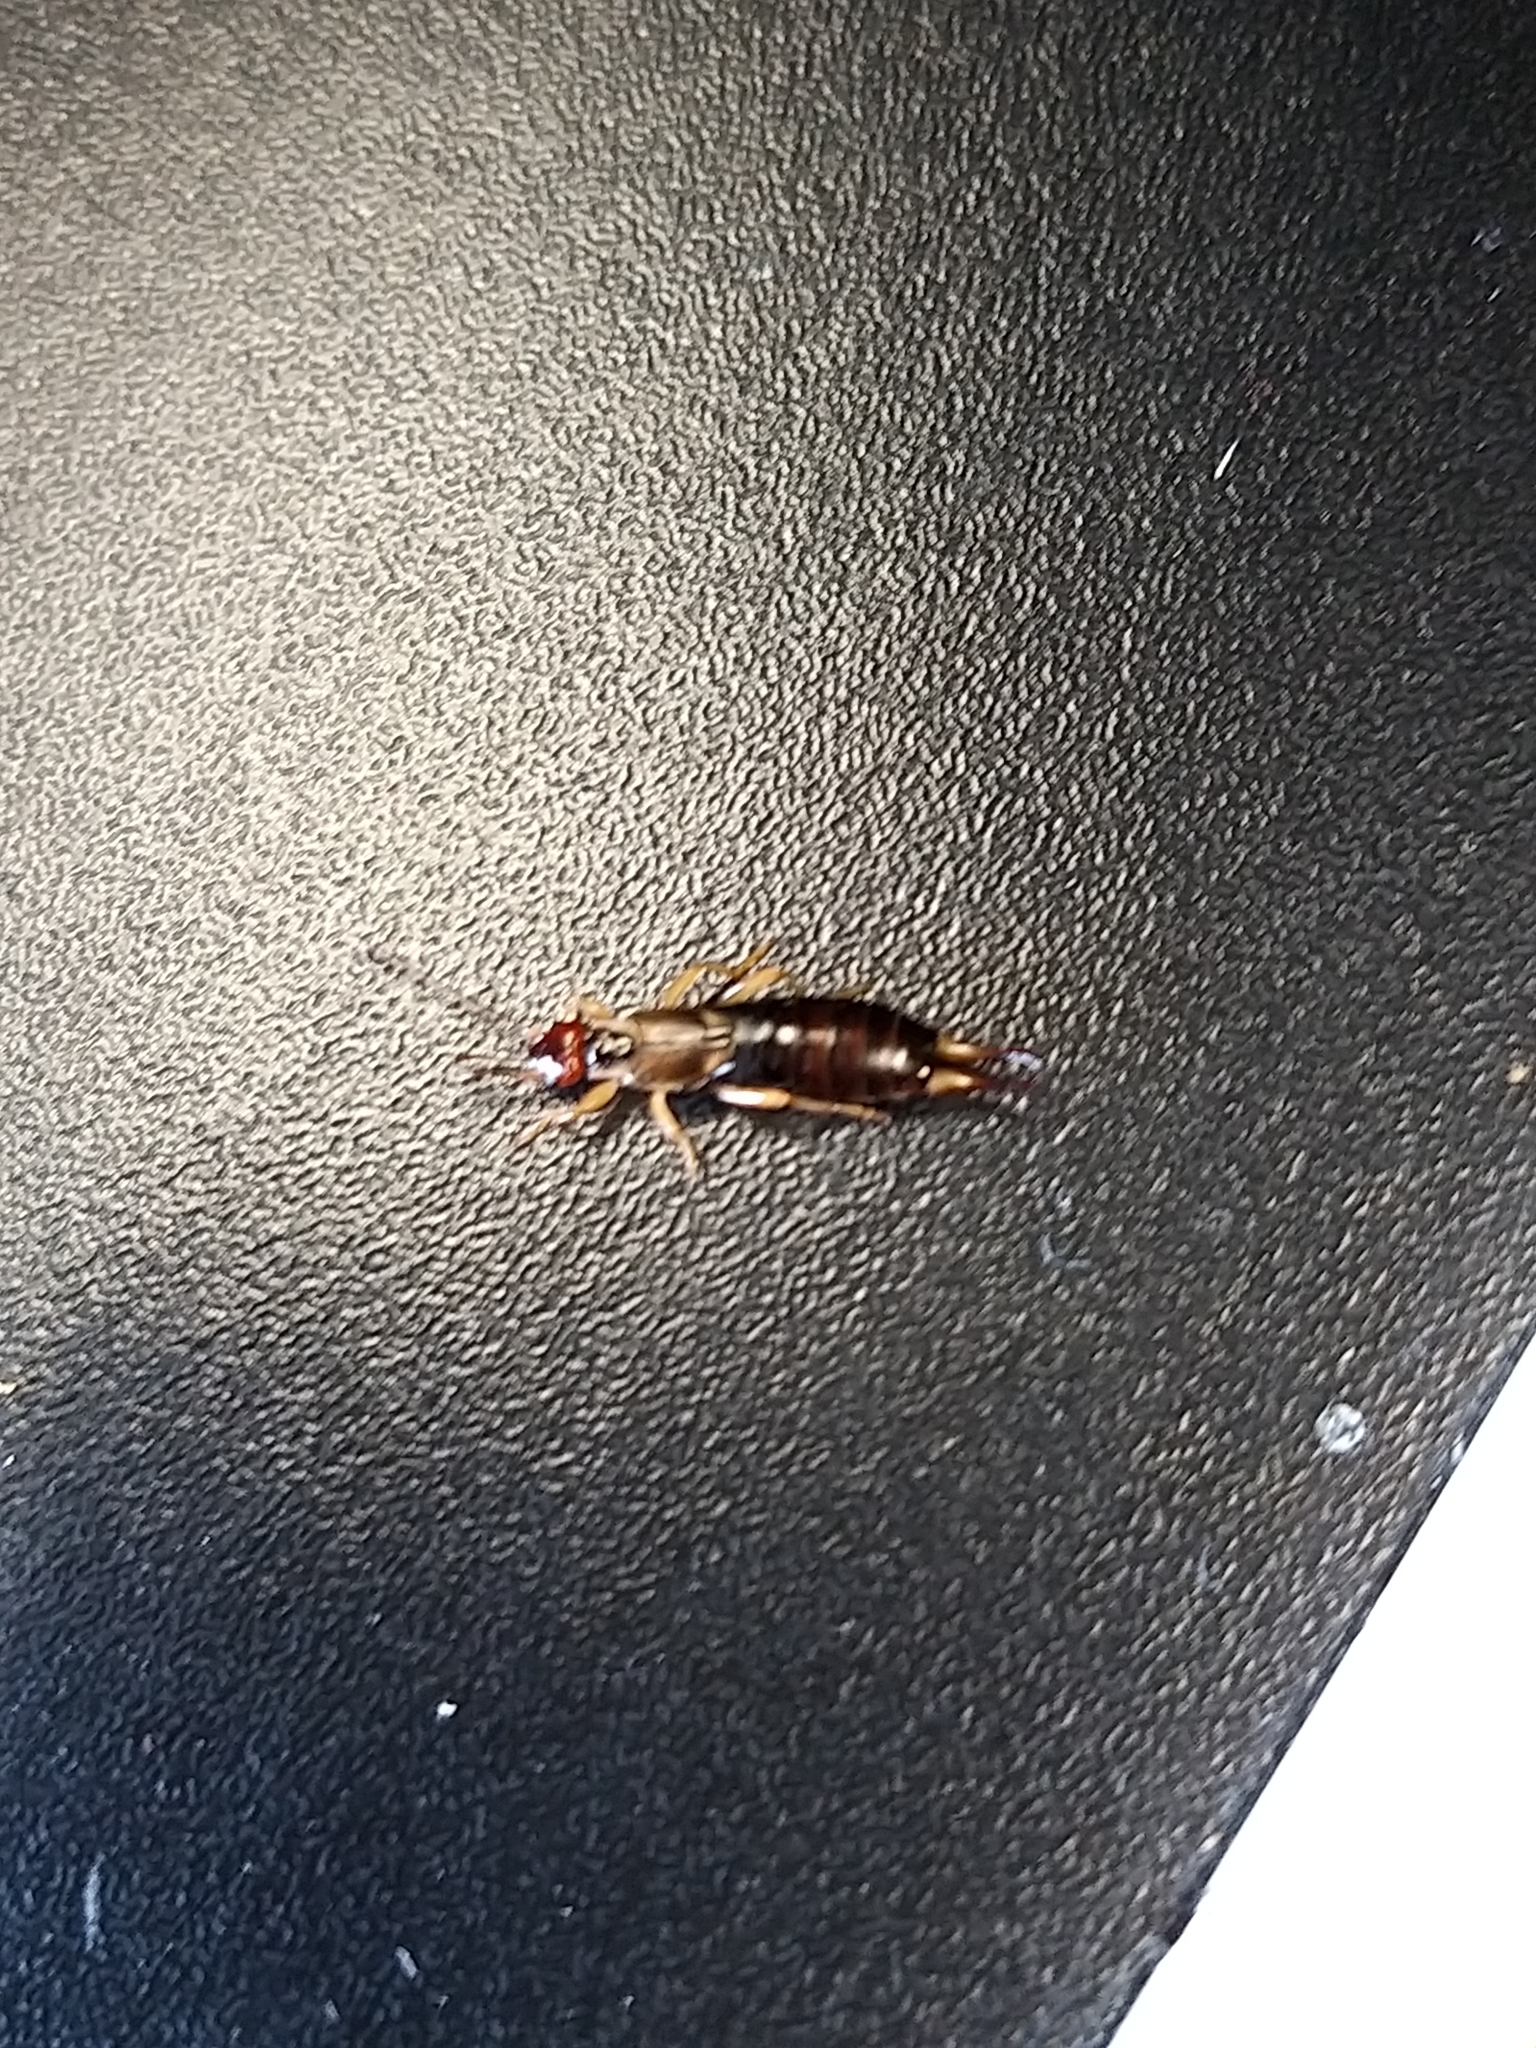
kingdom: Animalia
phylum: Arthropoda
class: Insecta
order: Dermaptera
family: Forficulidae
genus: Forficula
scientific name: Forficula
